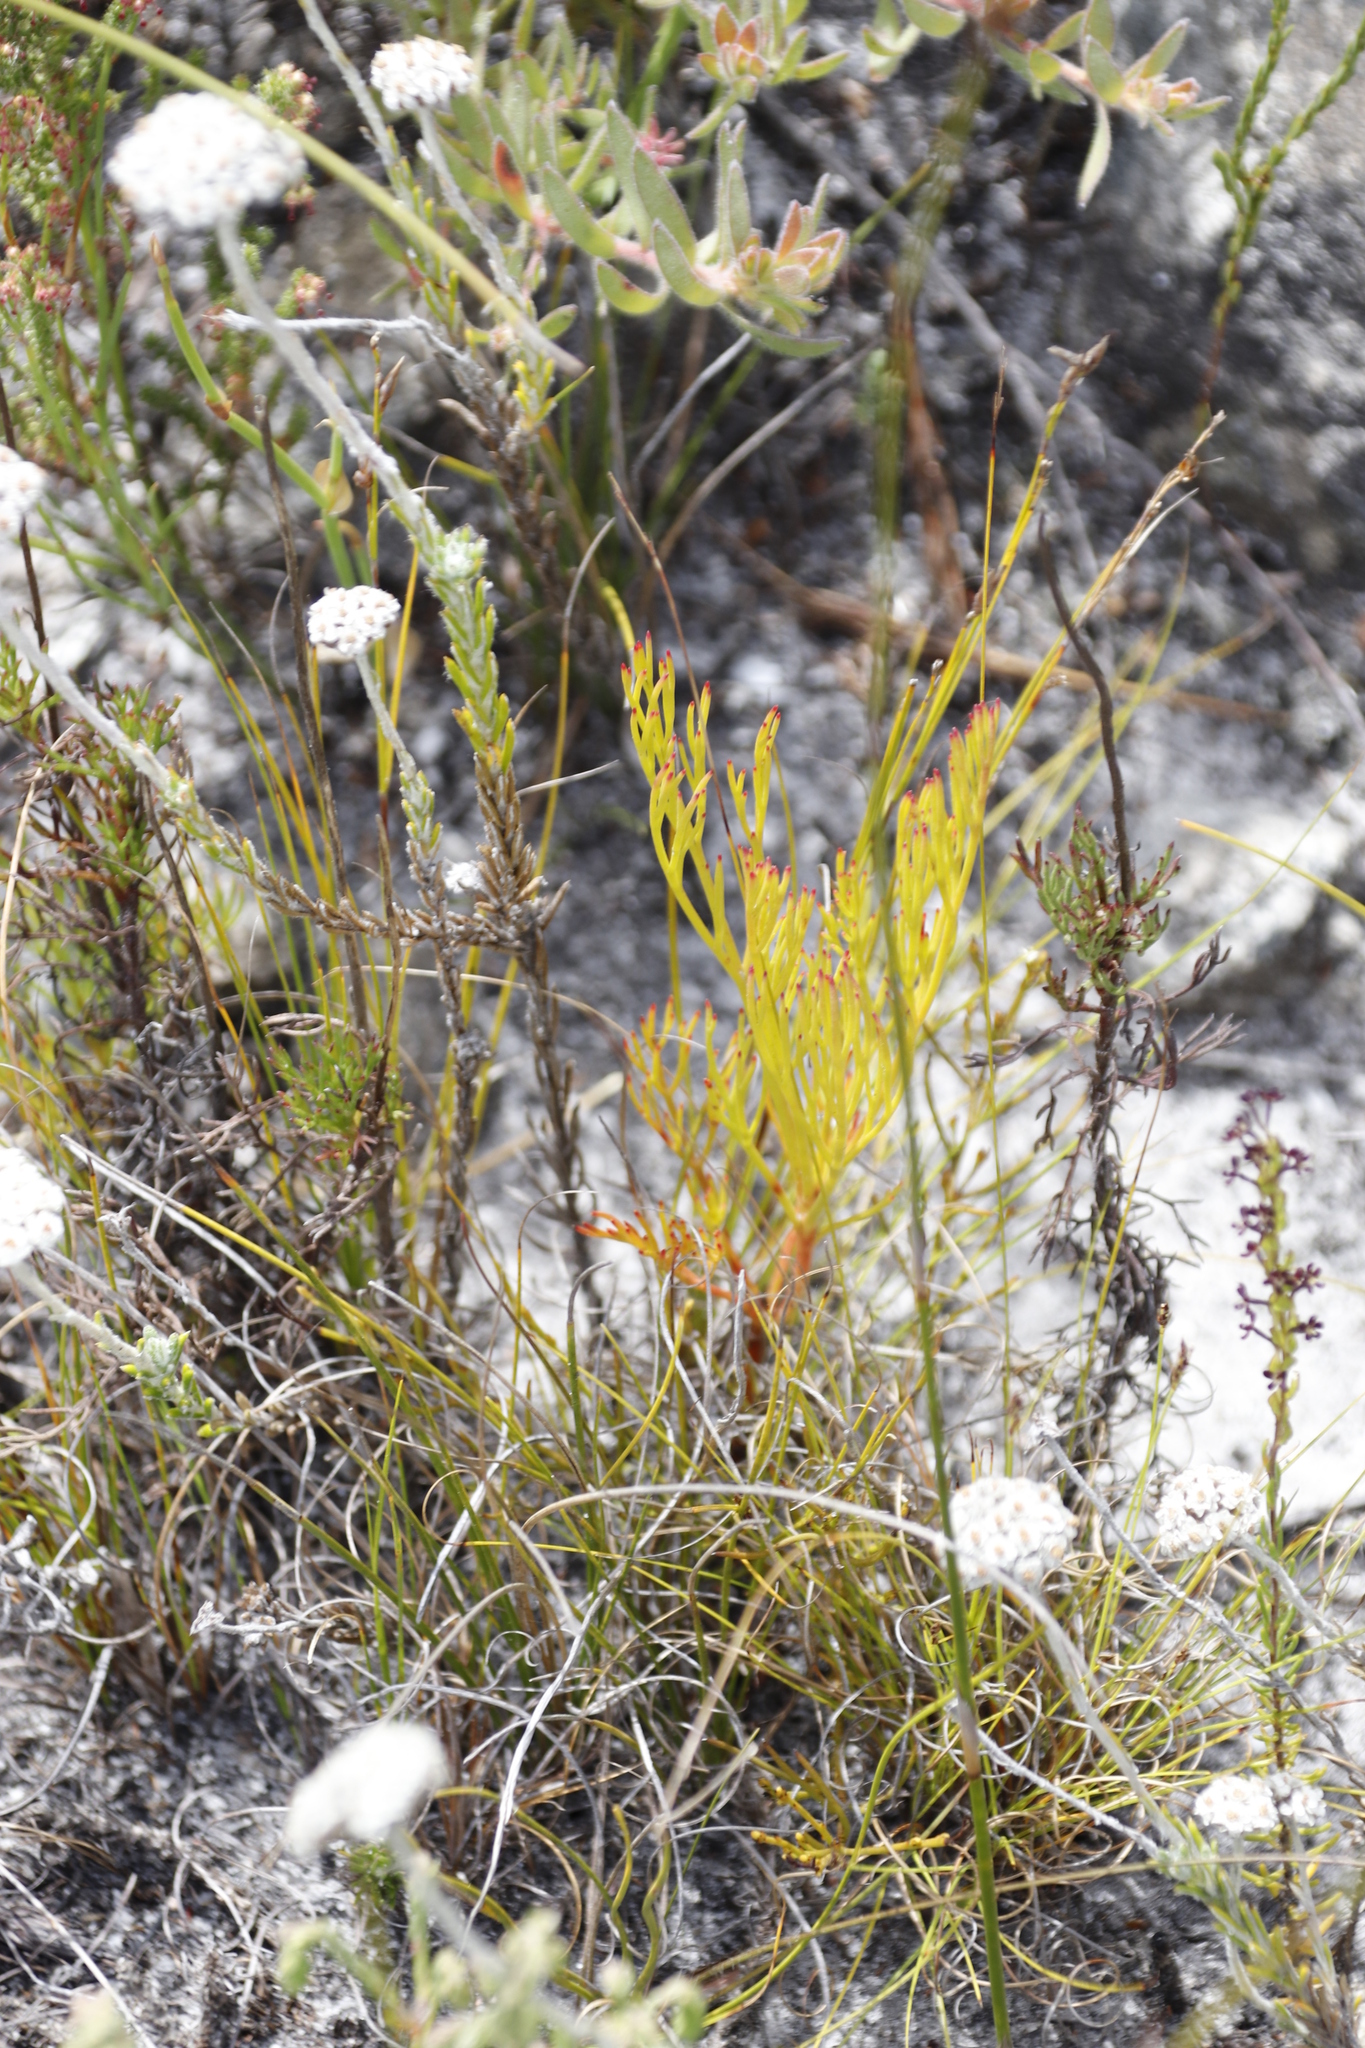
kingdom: Plantae
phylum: Tracheophyta
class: Magnoliopsida
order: Proteales
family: Proteaceae
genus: Serruria
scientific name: Serruria elongata
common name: Long-stalk spiderhead
